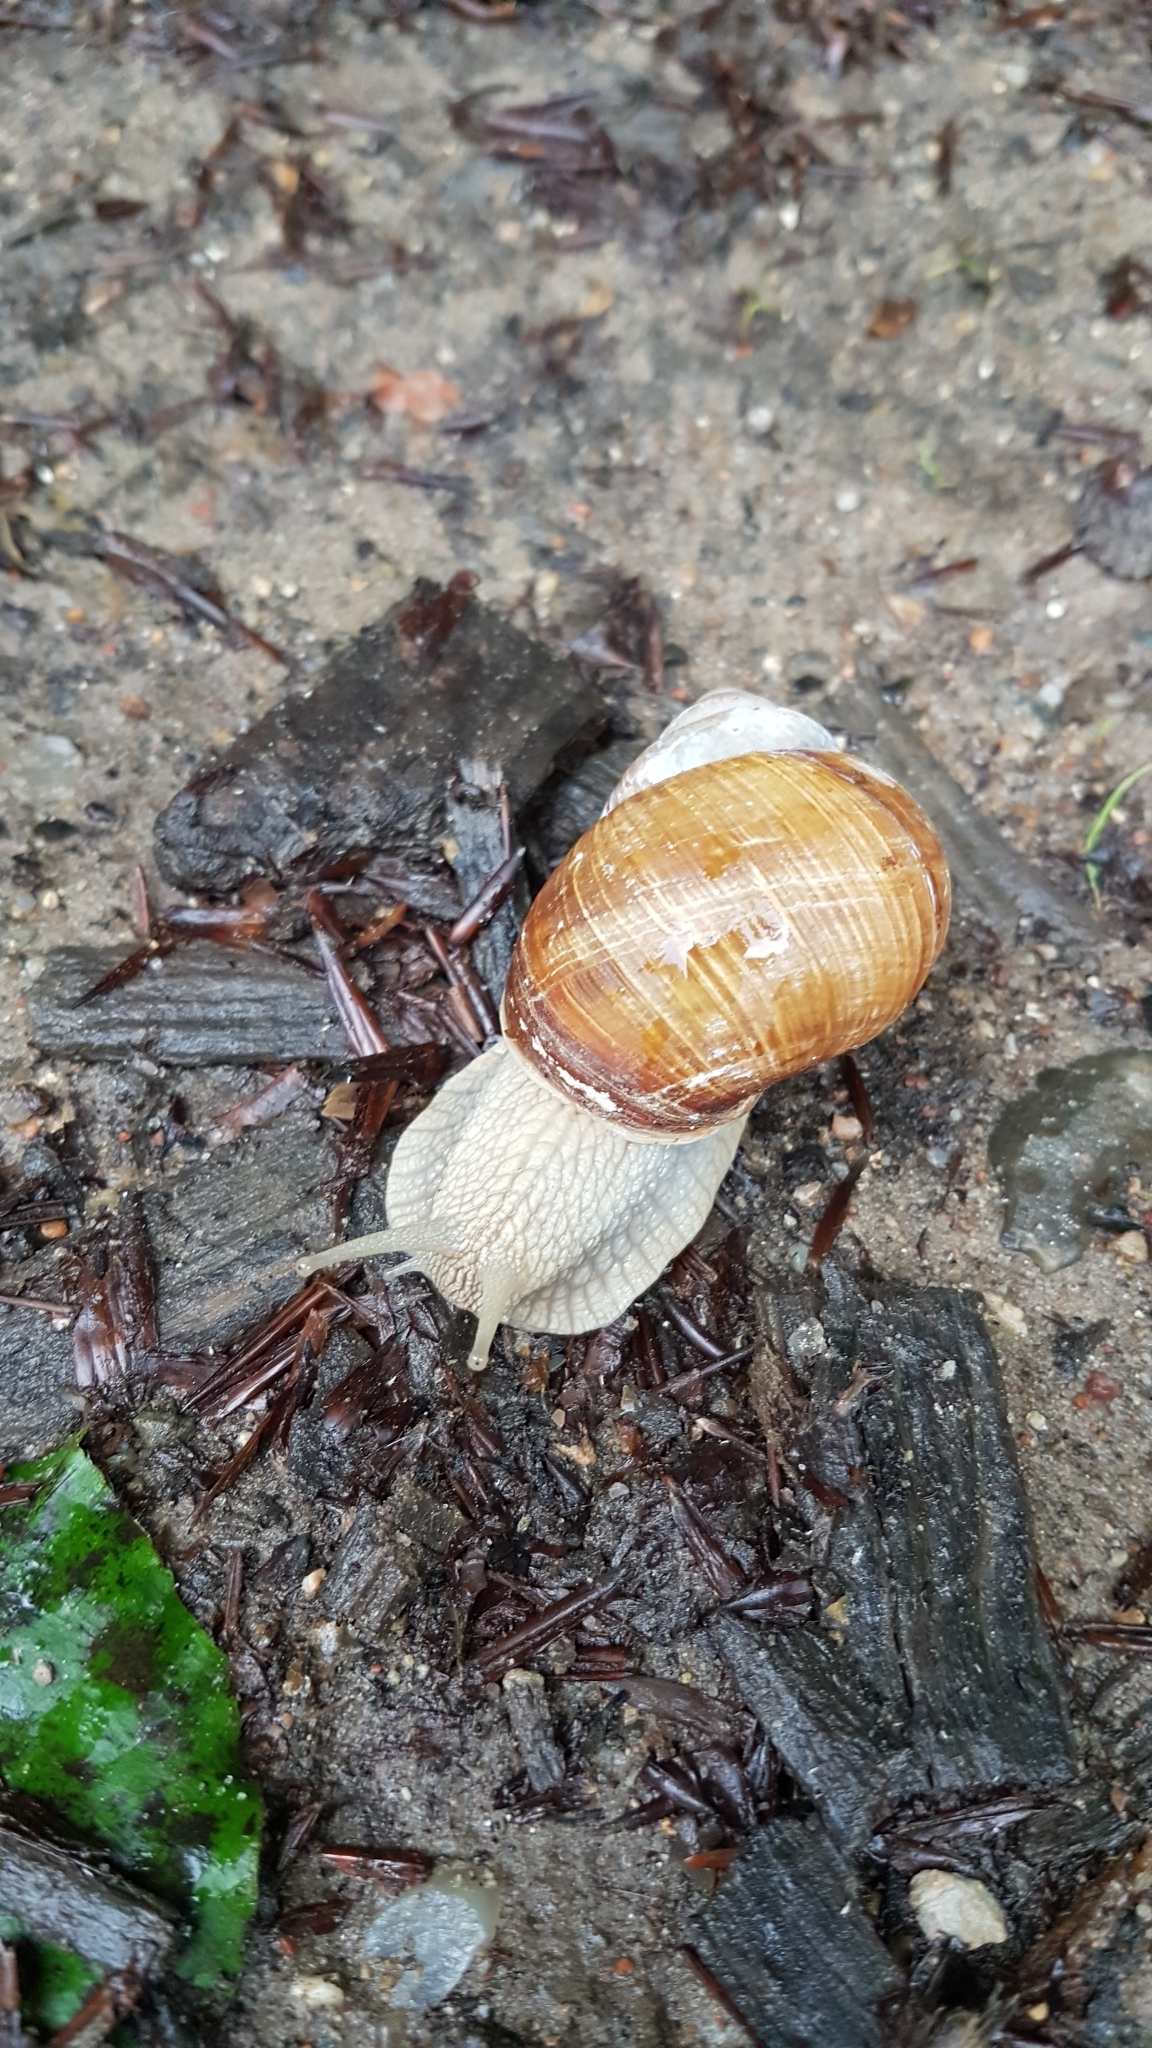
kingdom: Animalia
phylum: Mollusca
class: Gastropoda
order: Stylommatophora
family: Helicidae
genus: Helix
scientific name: Helix pomatia
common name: Roman snail
